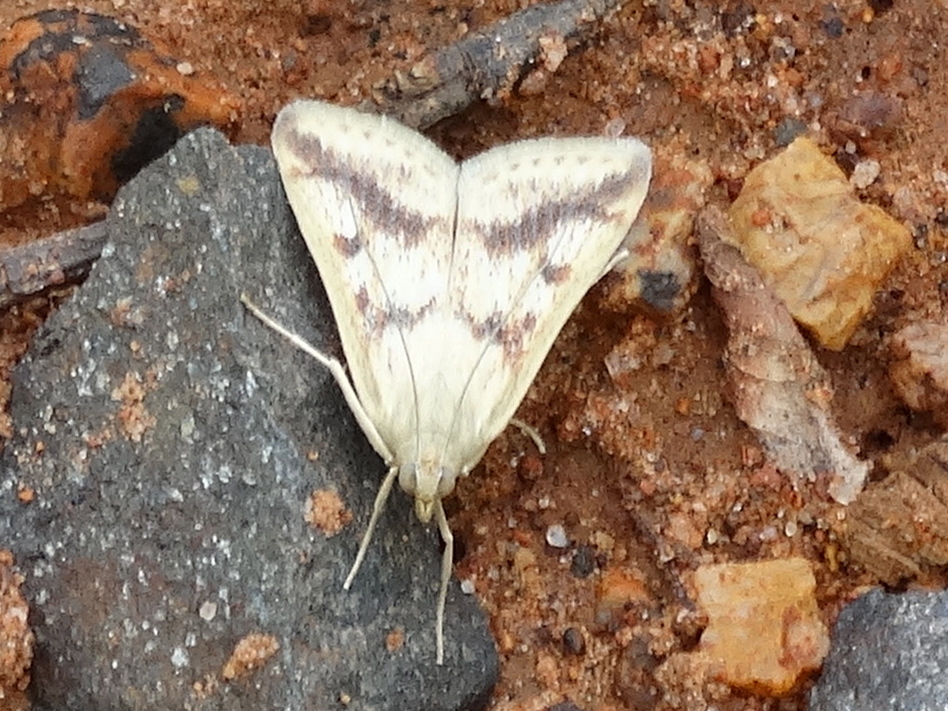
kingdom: Animalia
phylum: Arthropoda
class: Insecta
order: Lepidoptera
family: Crambidae
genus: Achyra
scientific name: Achyra bifidalis
